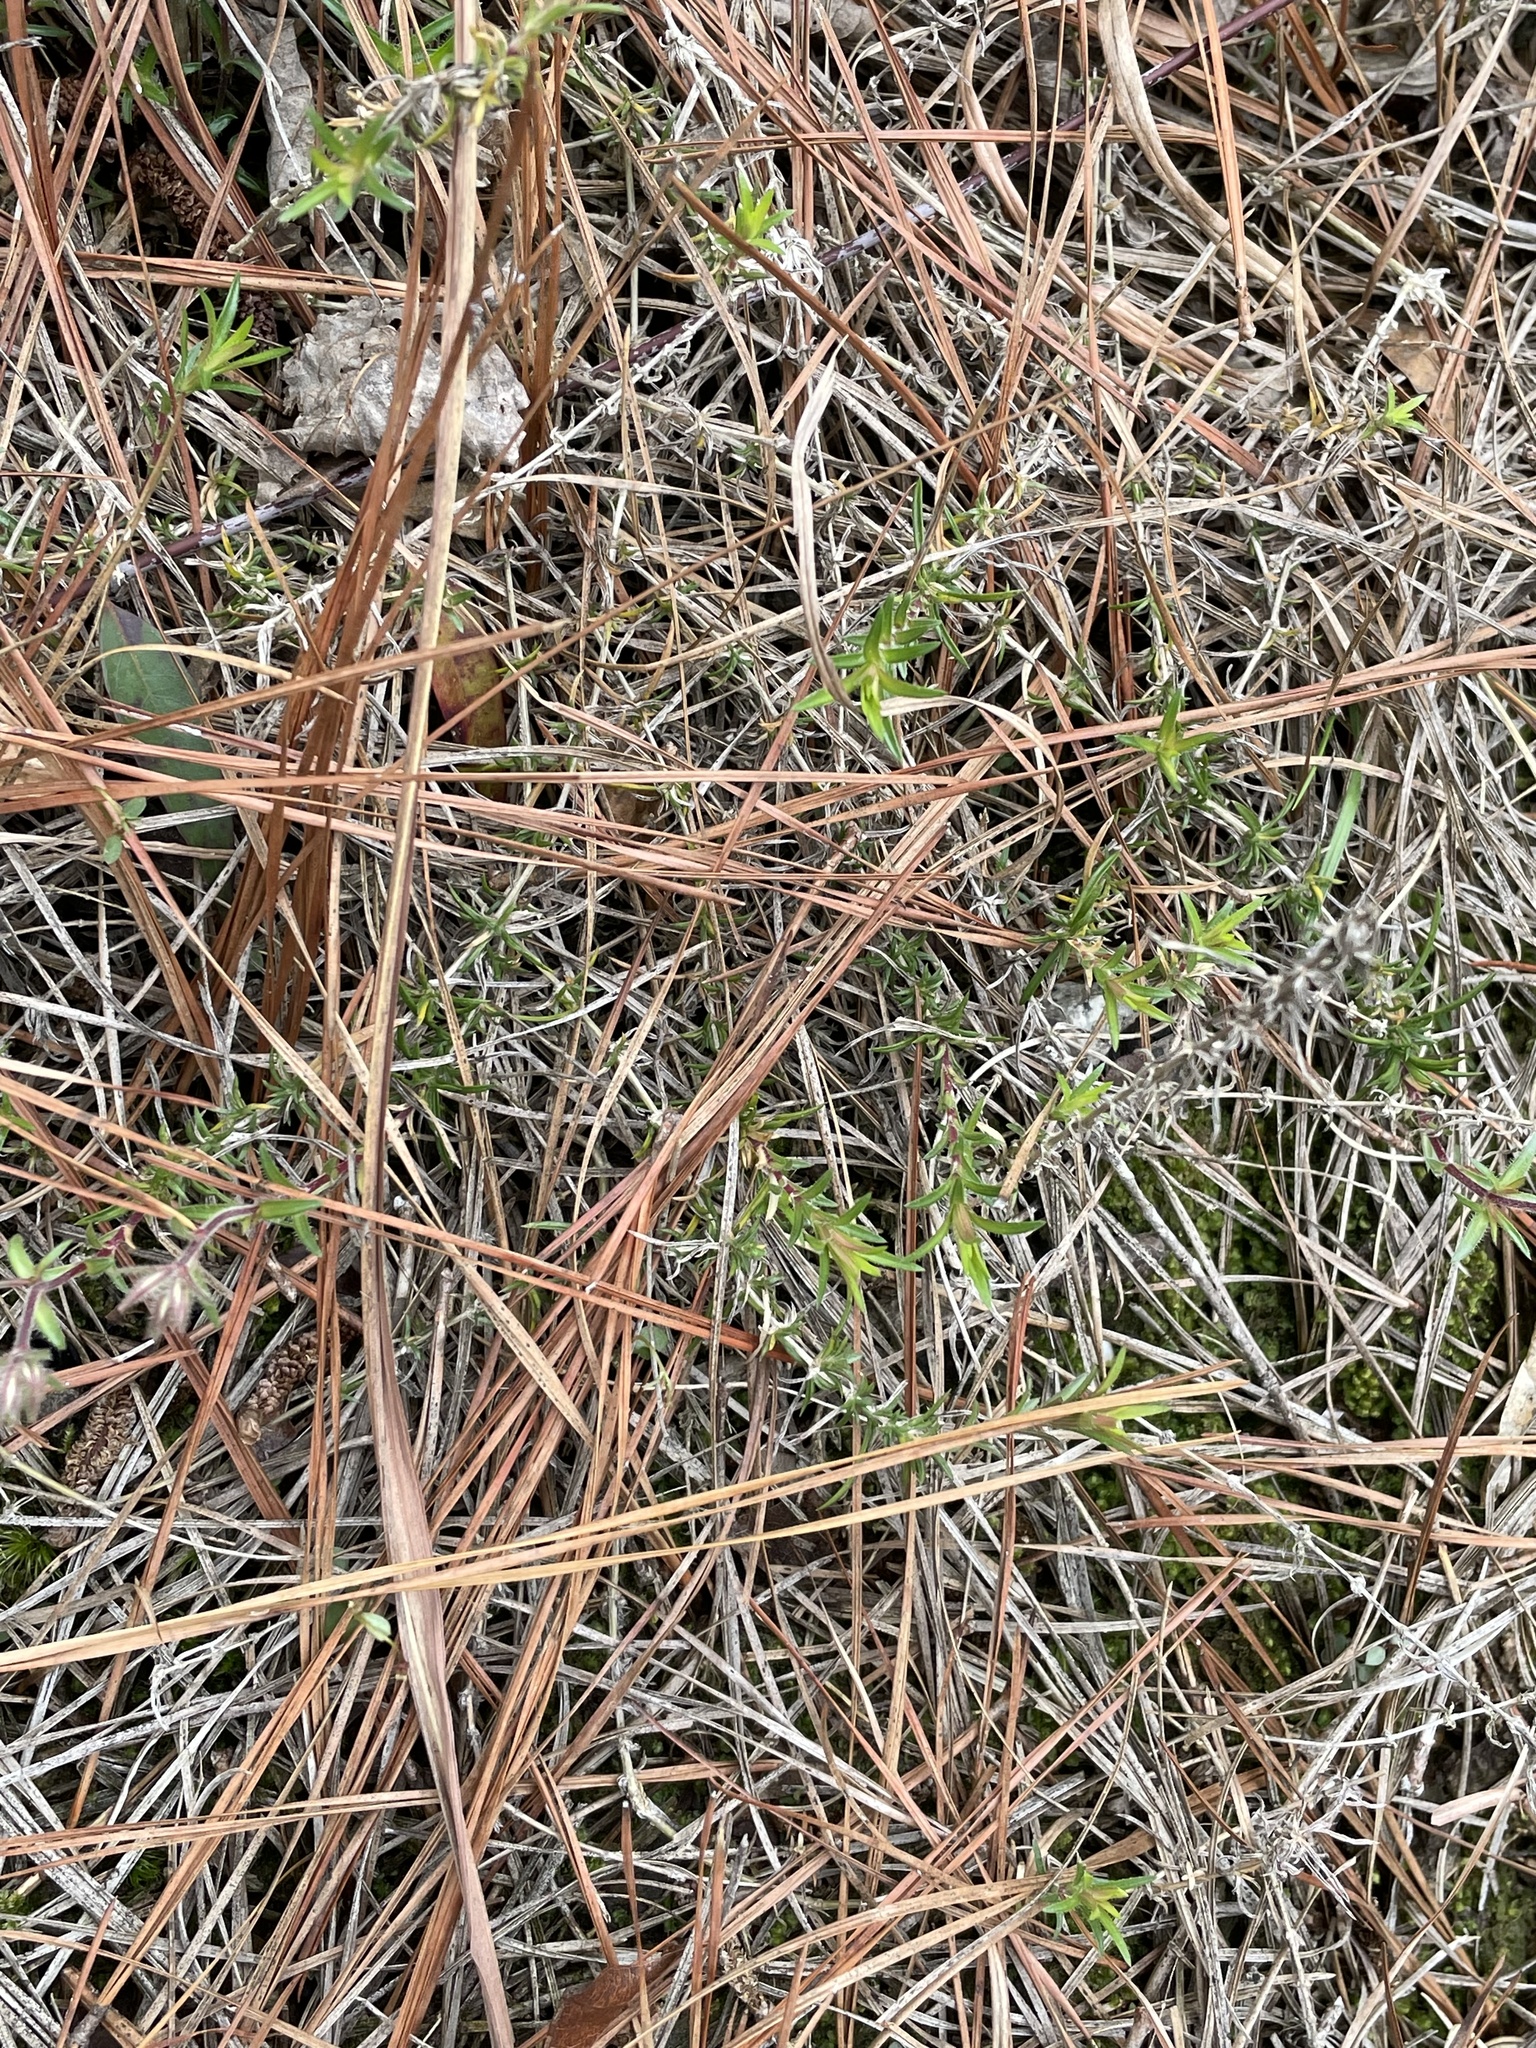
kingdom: Plantae
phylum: Tracheophyta
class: Magnoliopsida
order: Ericales
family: Polemoniaceae
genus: Phlox
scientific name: Phlox nivalis
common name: Trailing phlox
